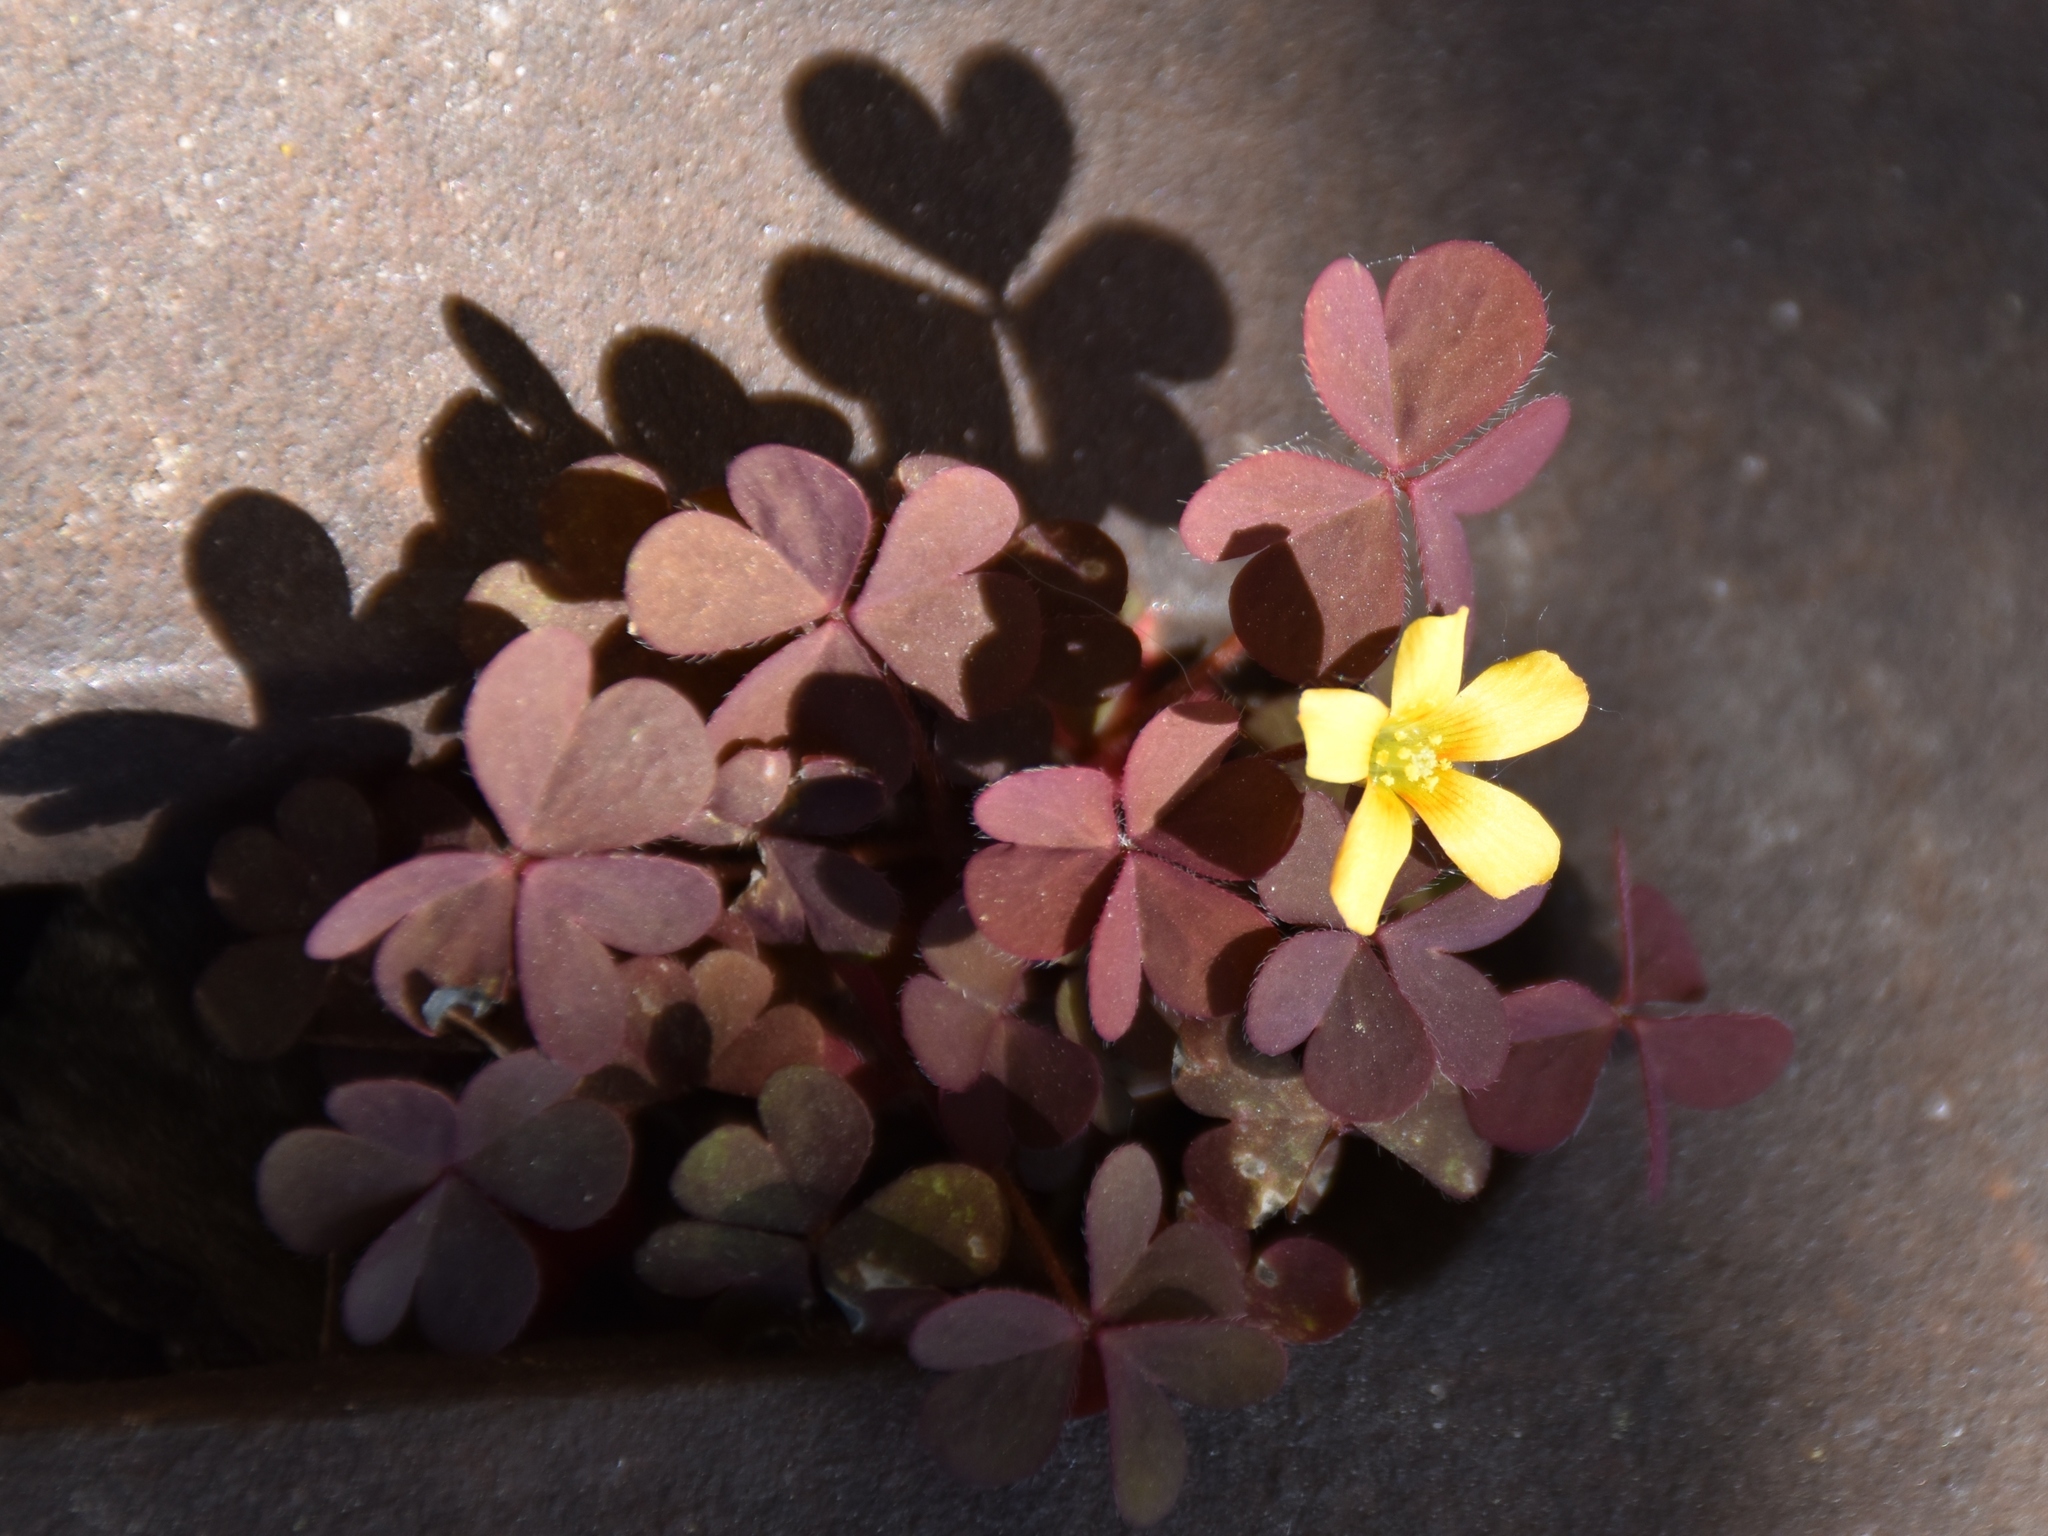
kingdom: Plantae
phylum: Tracheophyta
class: Magnoliopsida
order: Oxalidales
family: Oxalidaceae
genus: Oxalis
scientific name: Oxalis corniculata
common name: Procumbent yellow-sorrel
